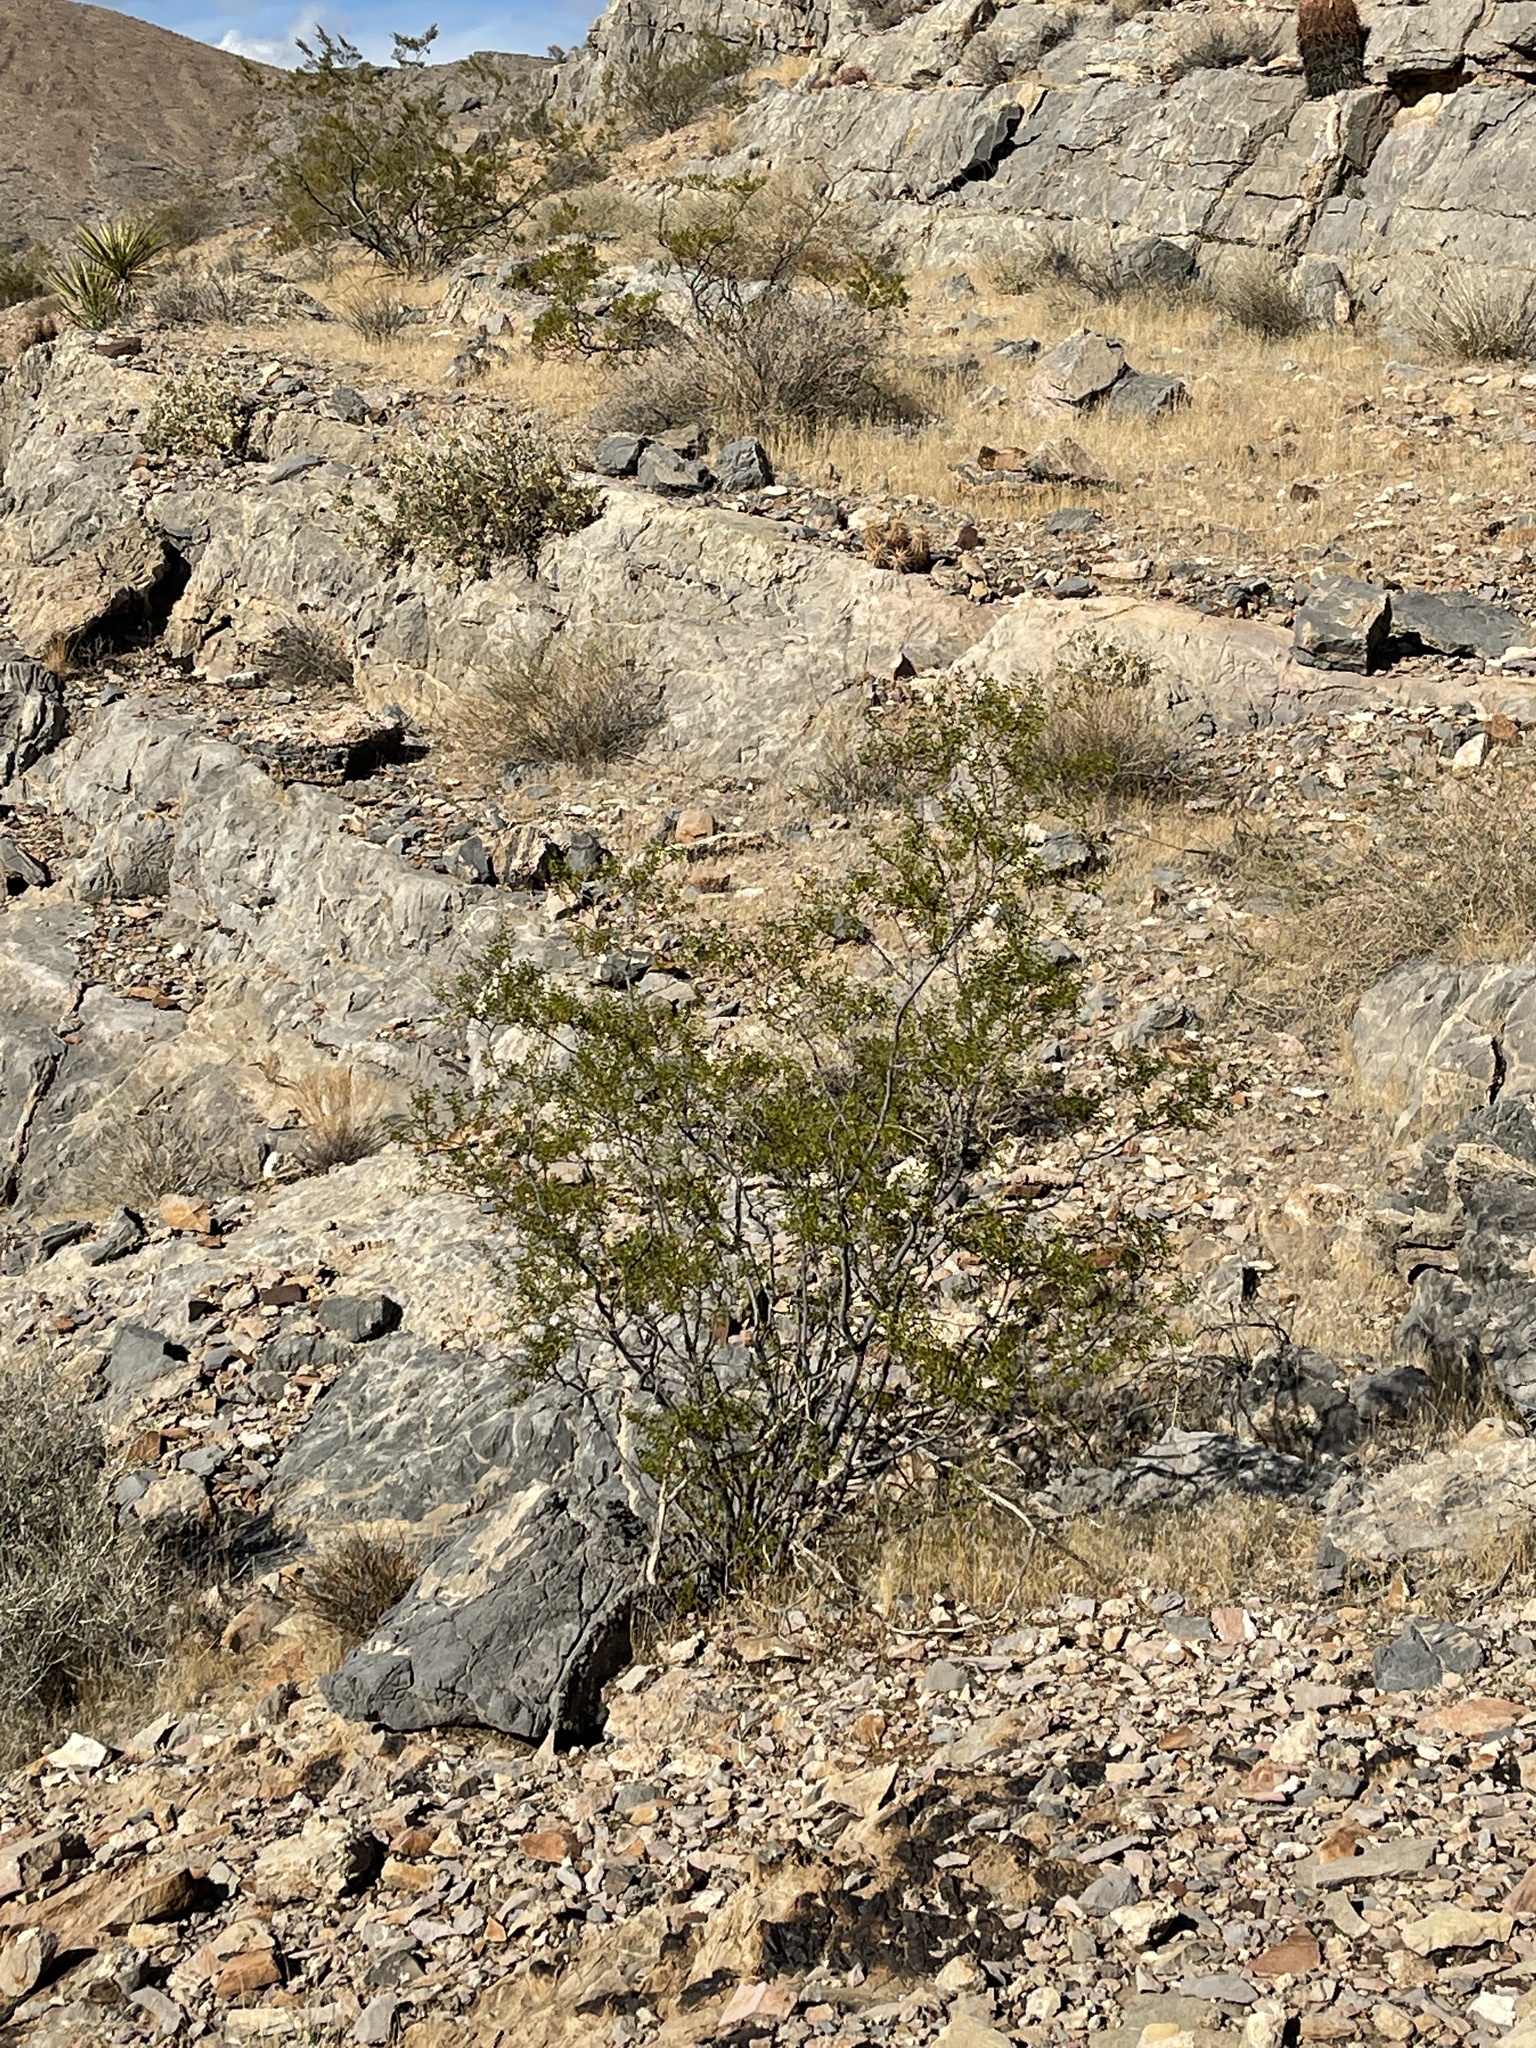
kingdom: Plantae
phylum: Tracheophyta
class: Magnoliopsida
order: Zygophyllales
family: Zygophyllaceae
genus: Larrea
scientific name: Larrea tridentata
